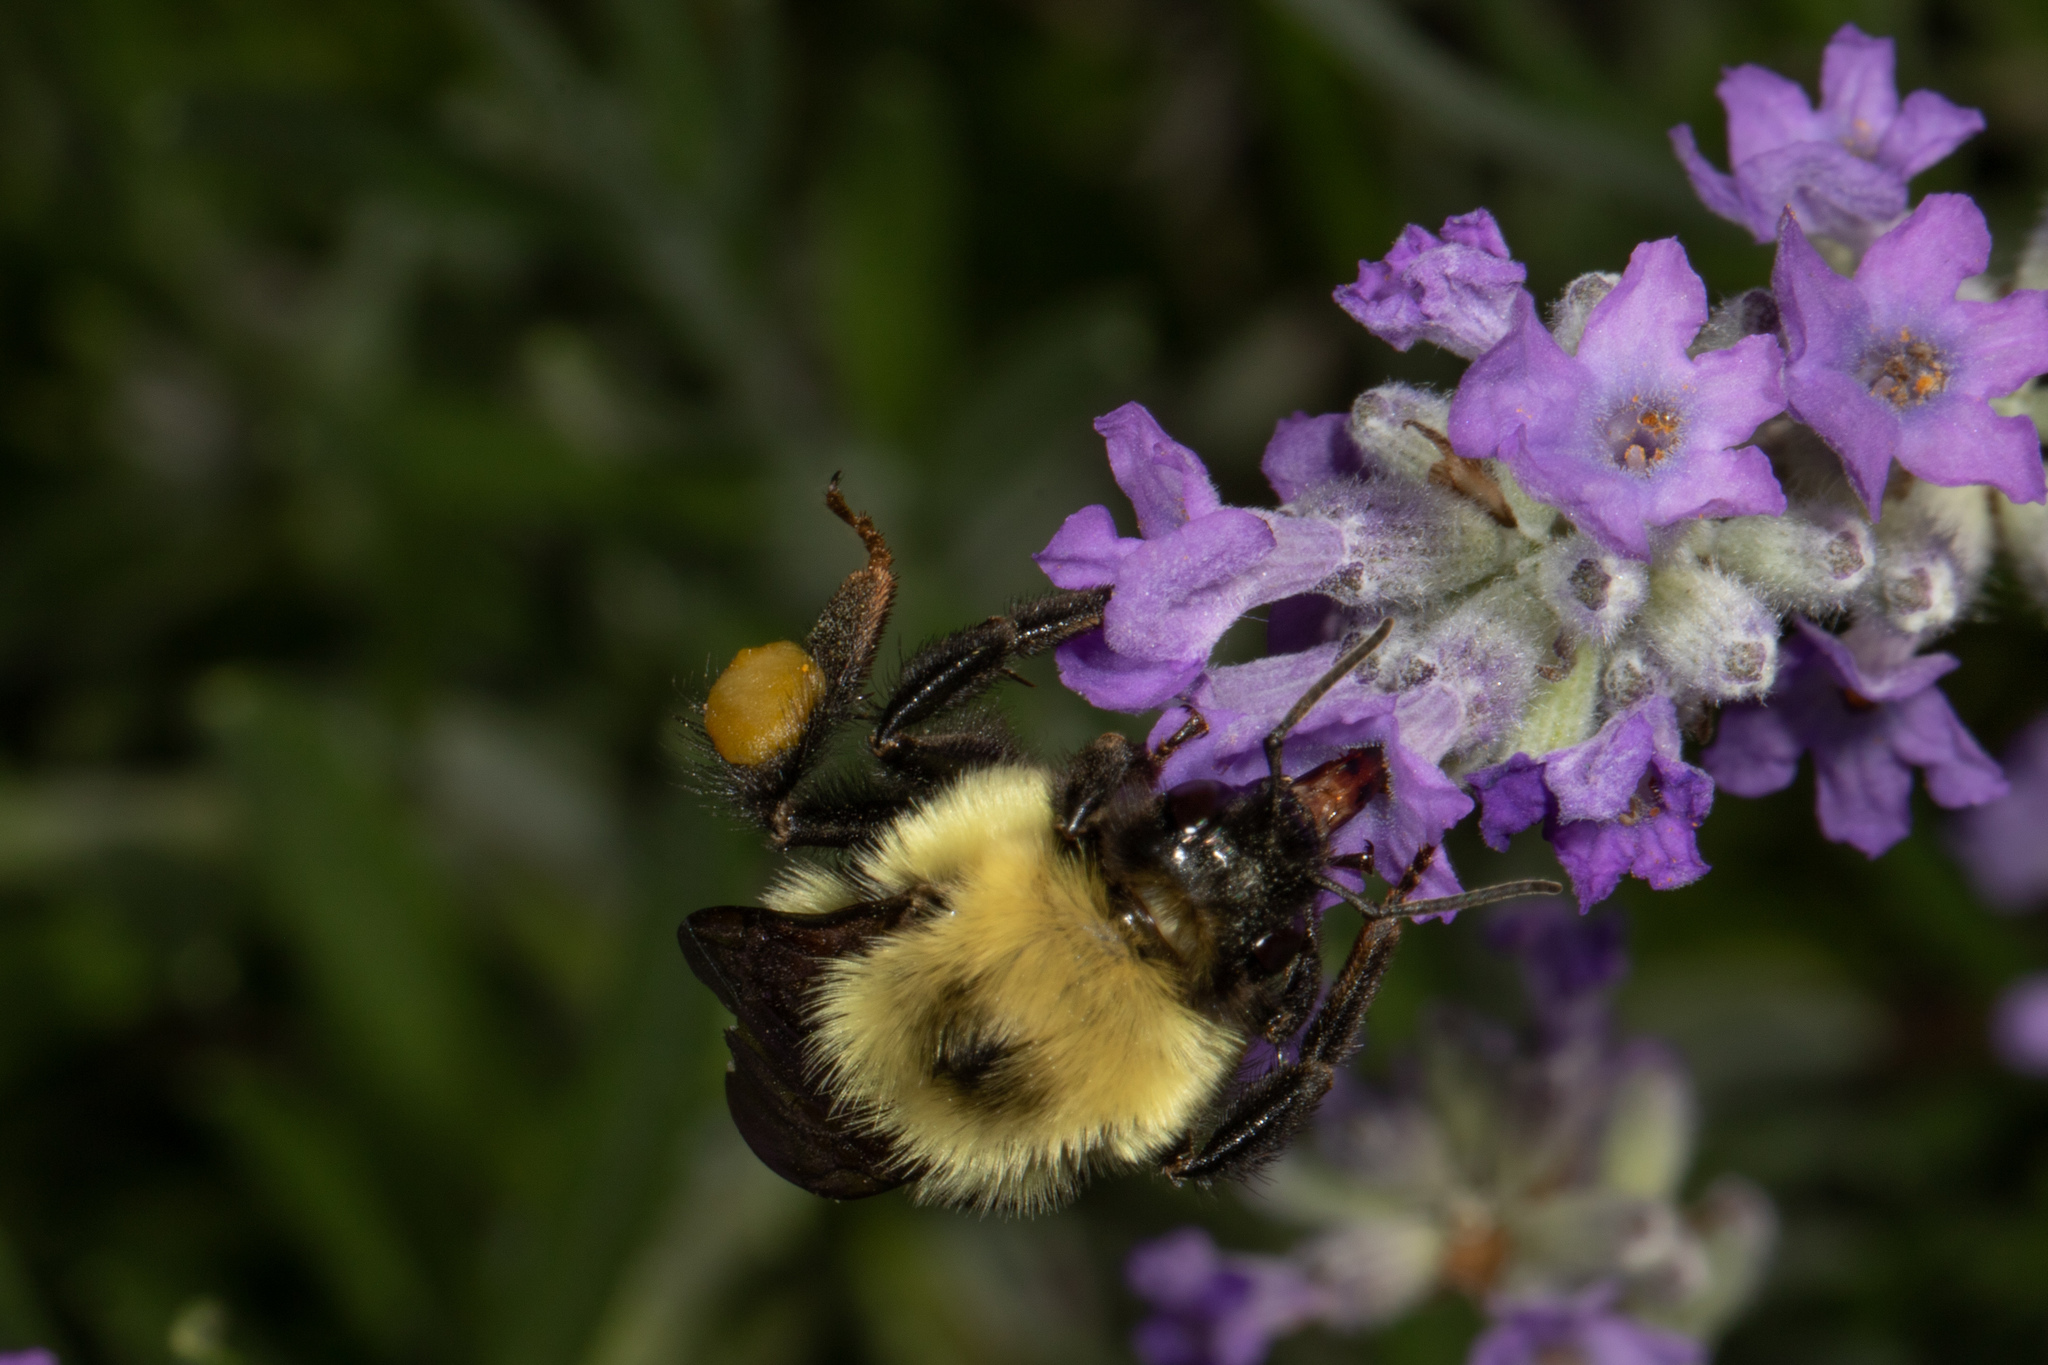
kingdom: Animalia
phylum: Arthropoda
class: Insecta
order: Hymenoptera
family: Apidae
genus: Bombus
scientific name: Bombus bimaculatus
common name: Two-spotted bumble bee
